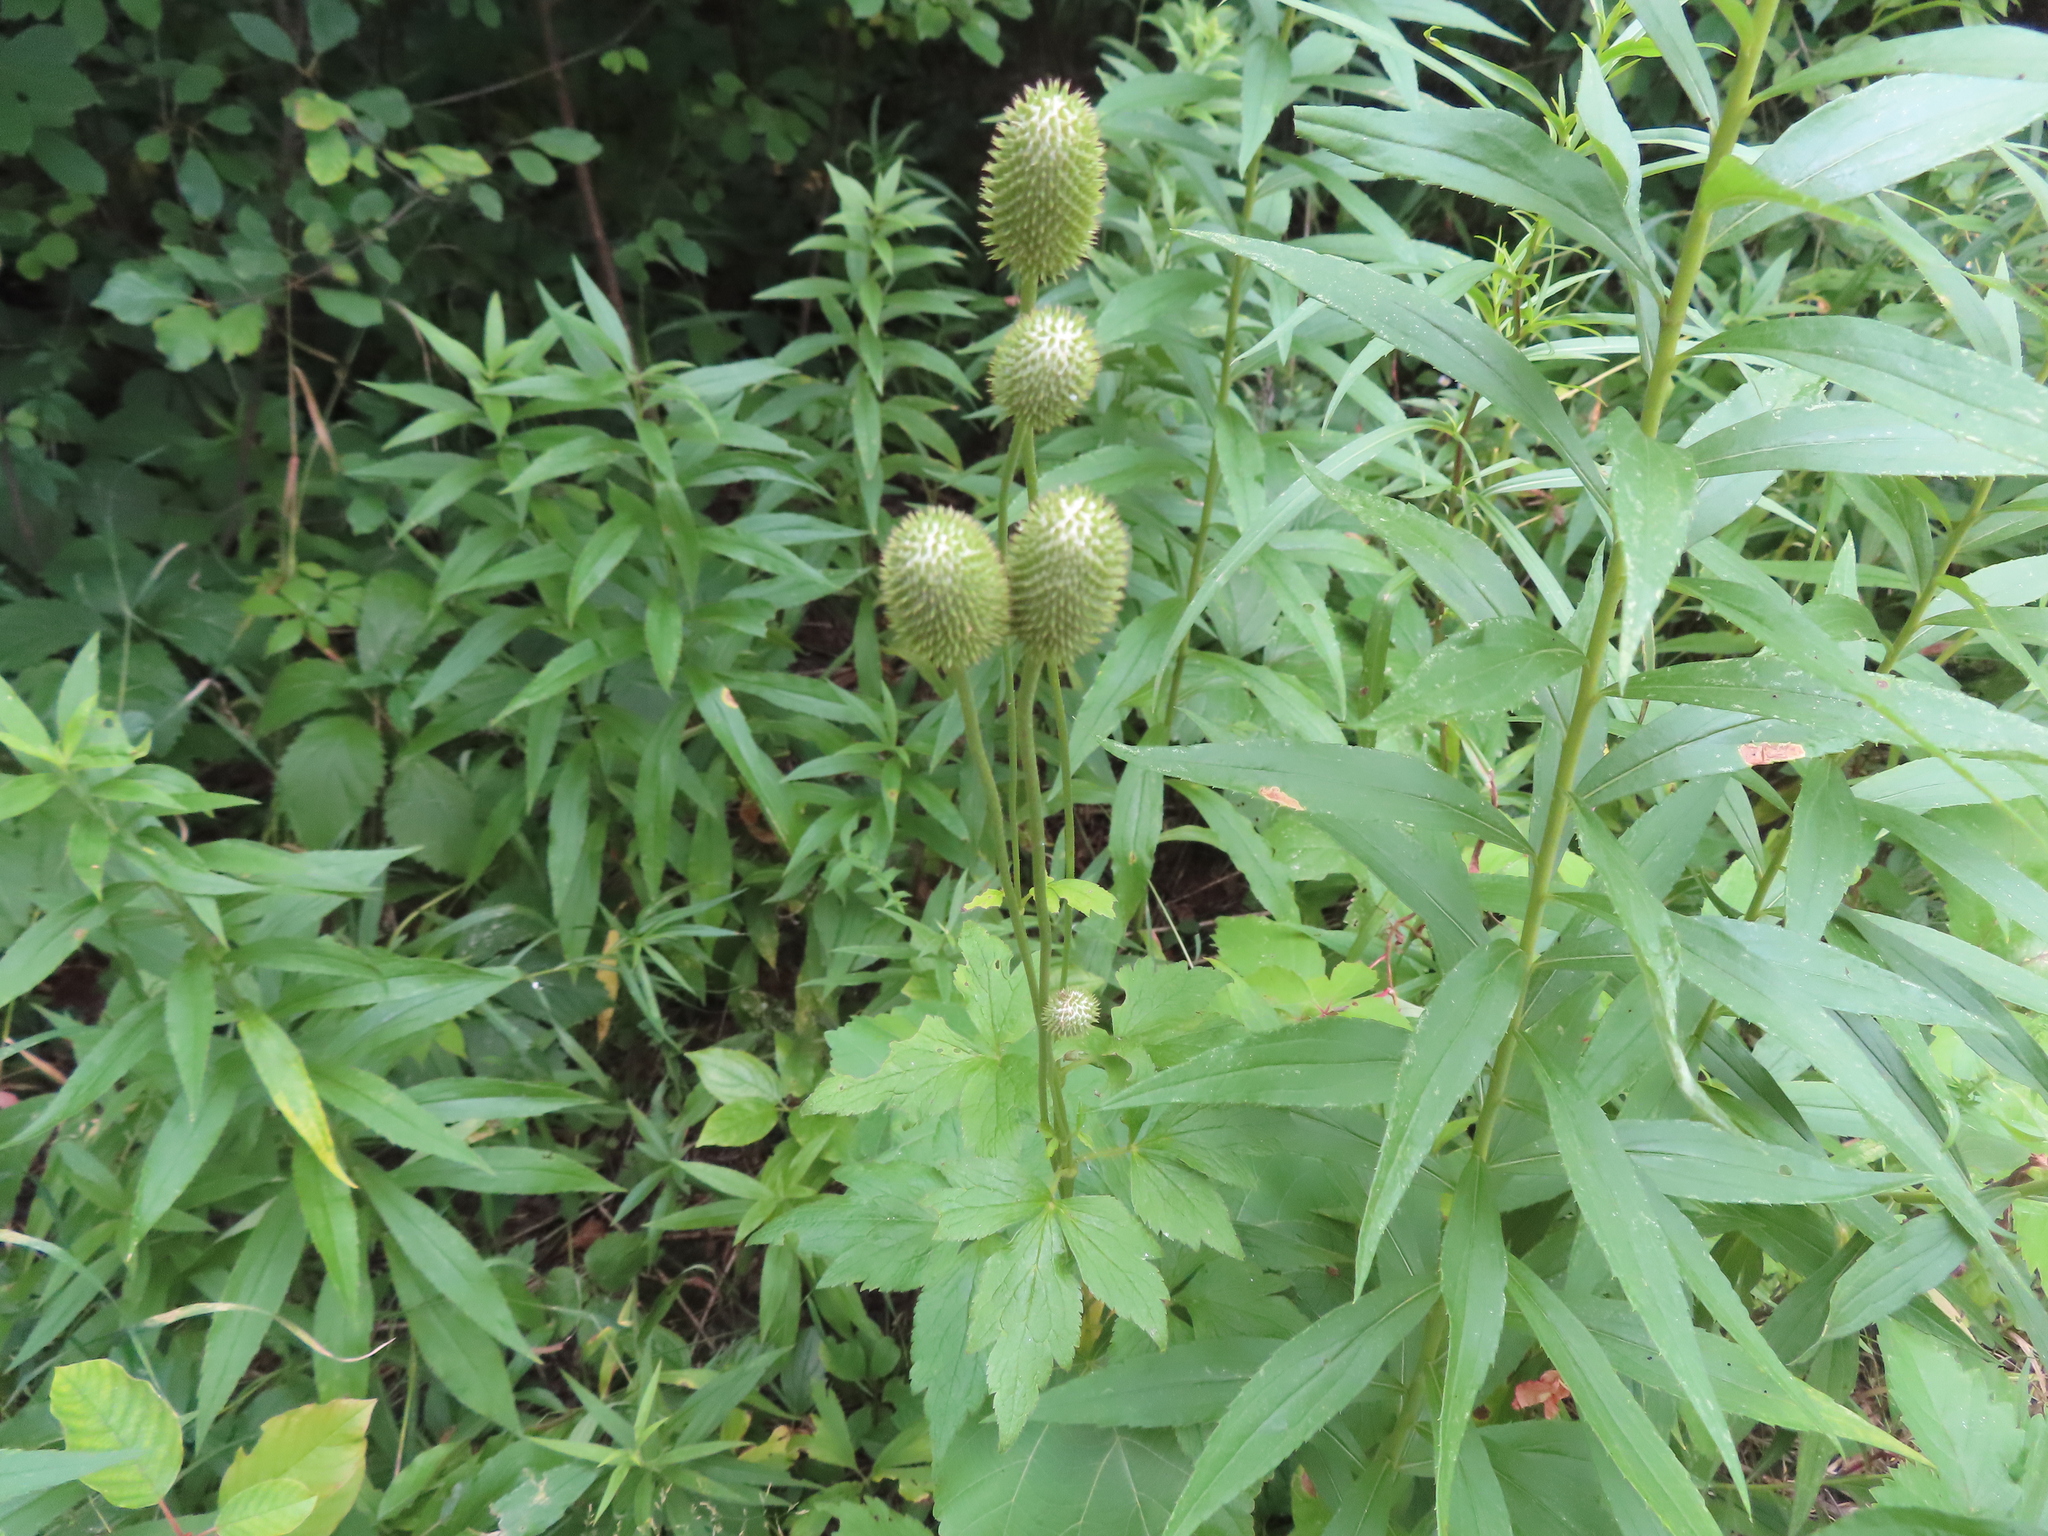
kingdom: Plantae
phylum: Tracheophyta
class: Magnoliopsida
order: Ranunculales
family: Ranunculaceae
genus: Anemone
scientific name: Anemone virginiana
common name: Tall anemone
